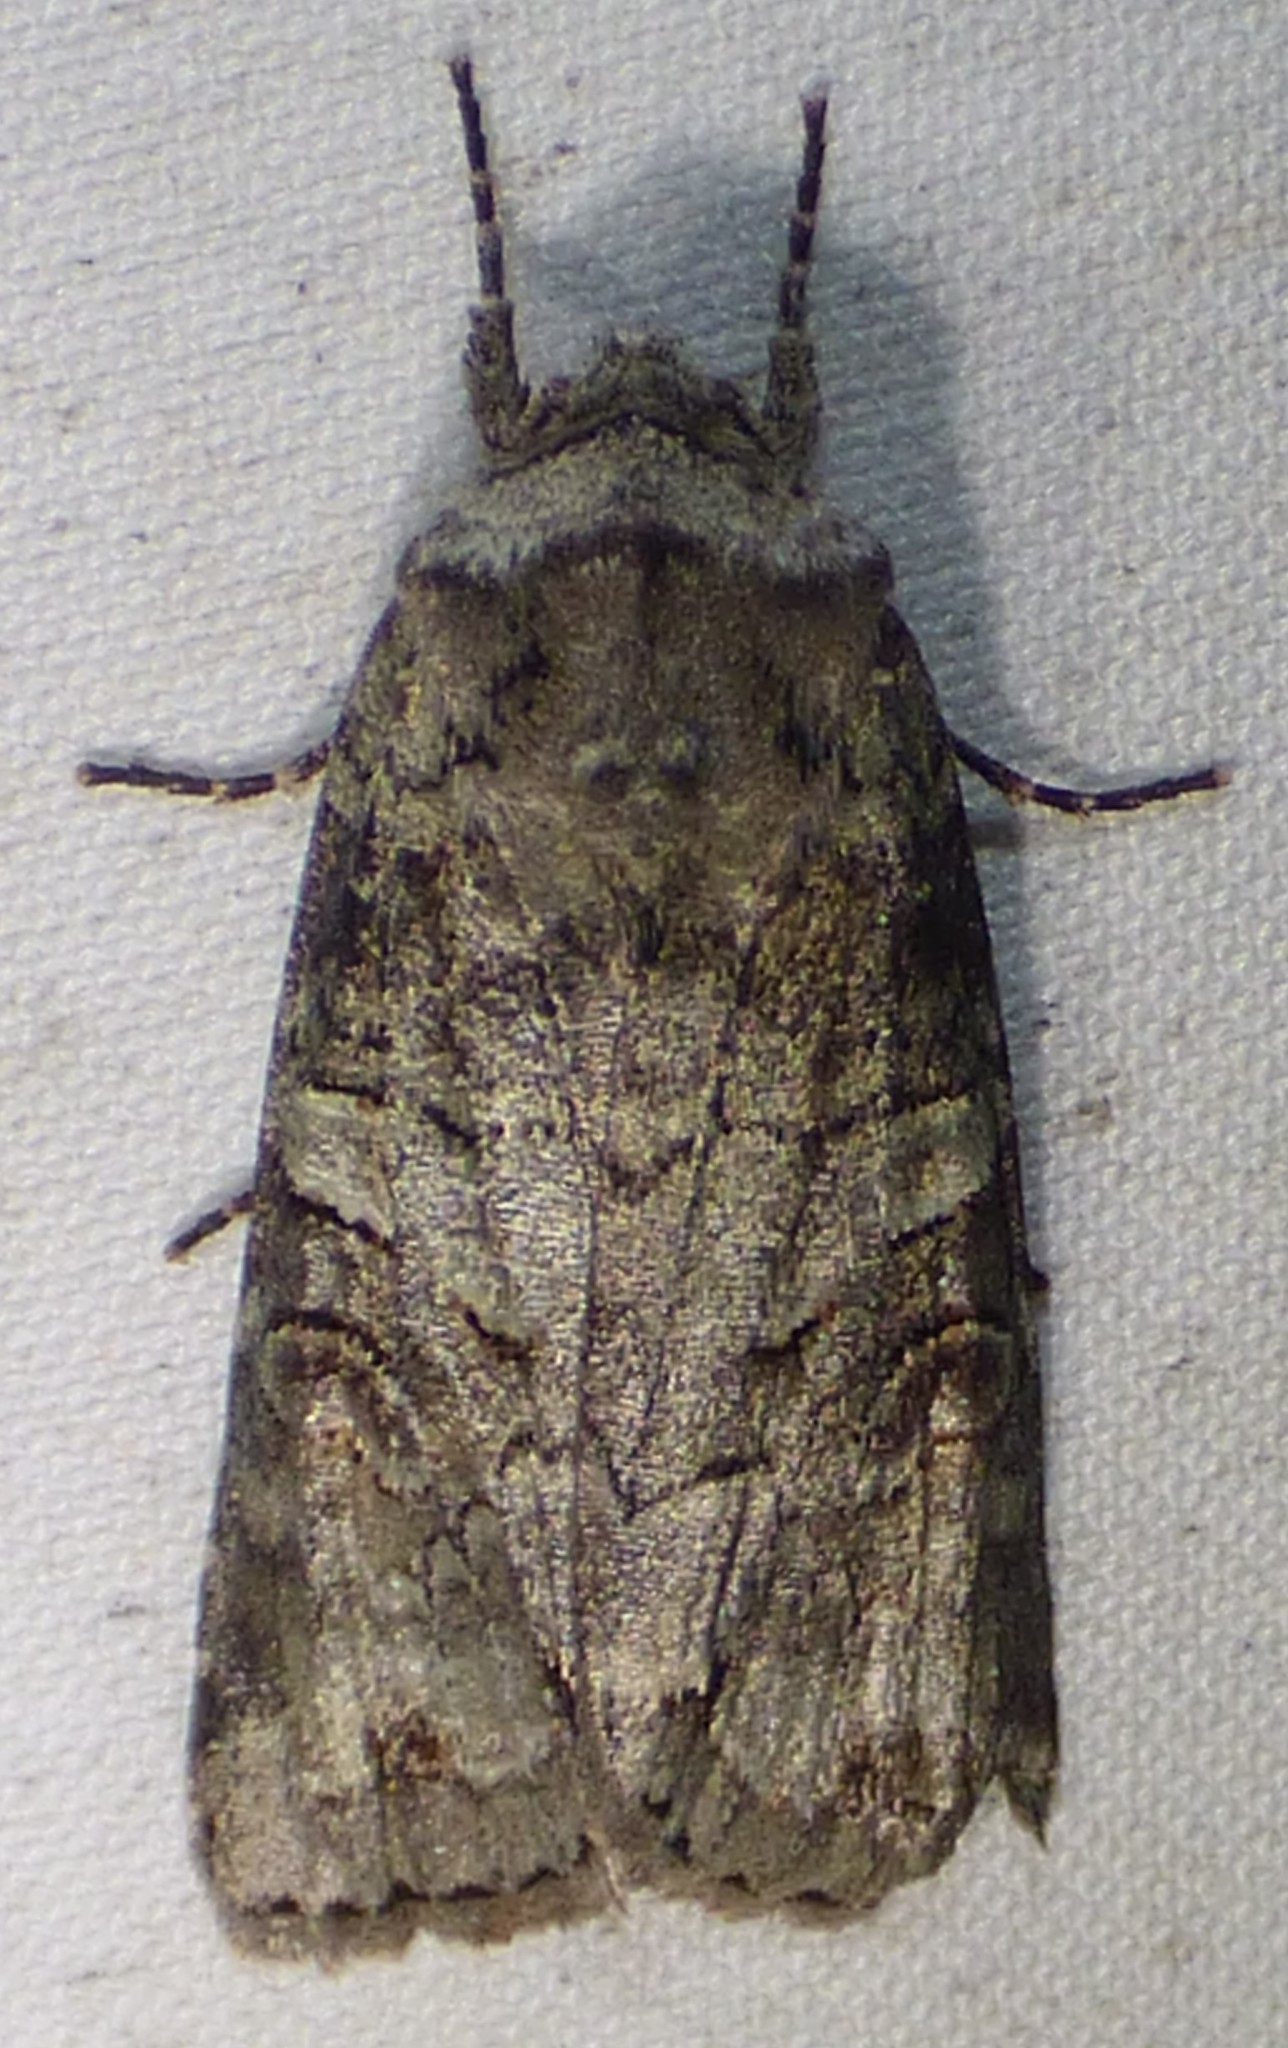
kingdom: Animalia
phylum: Arthropoda
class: Insecta
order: Lepidoptera
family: Noctuidae
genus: Egira
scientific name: Egira alternans
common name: Alternate woodling
